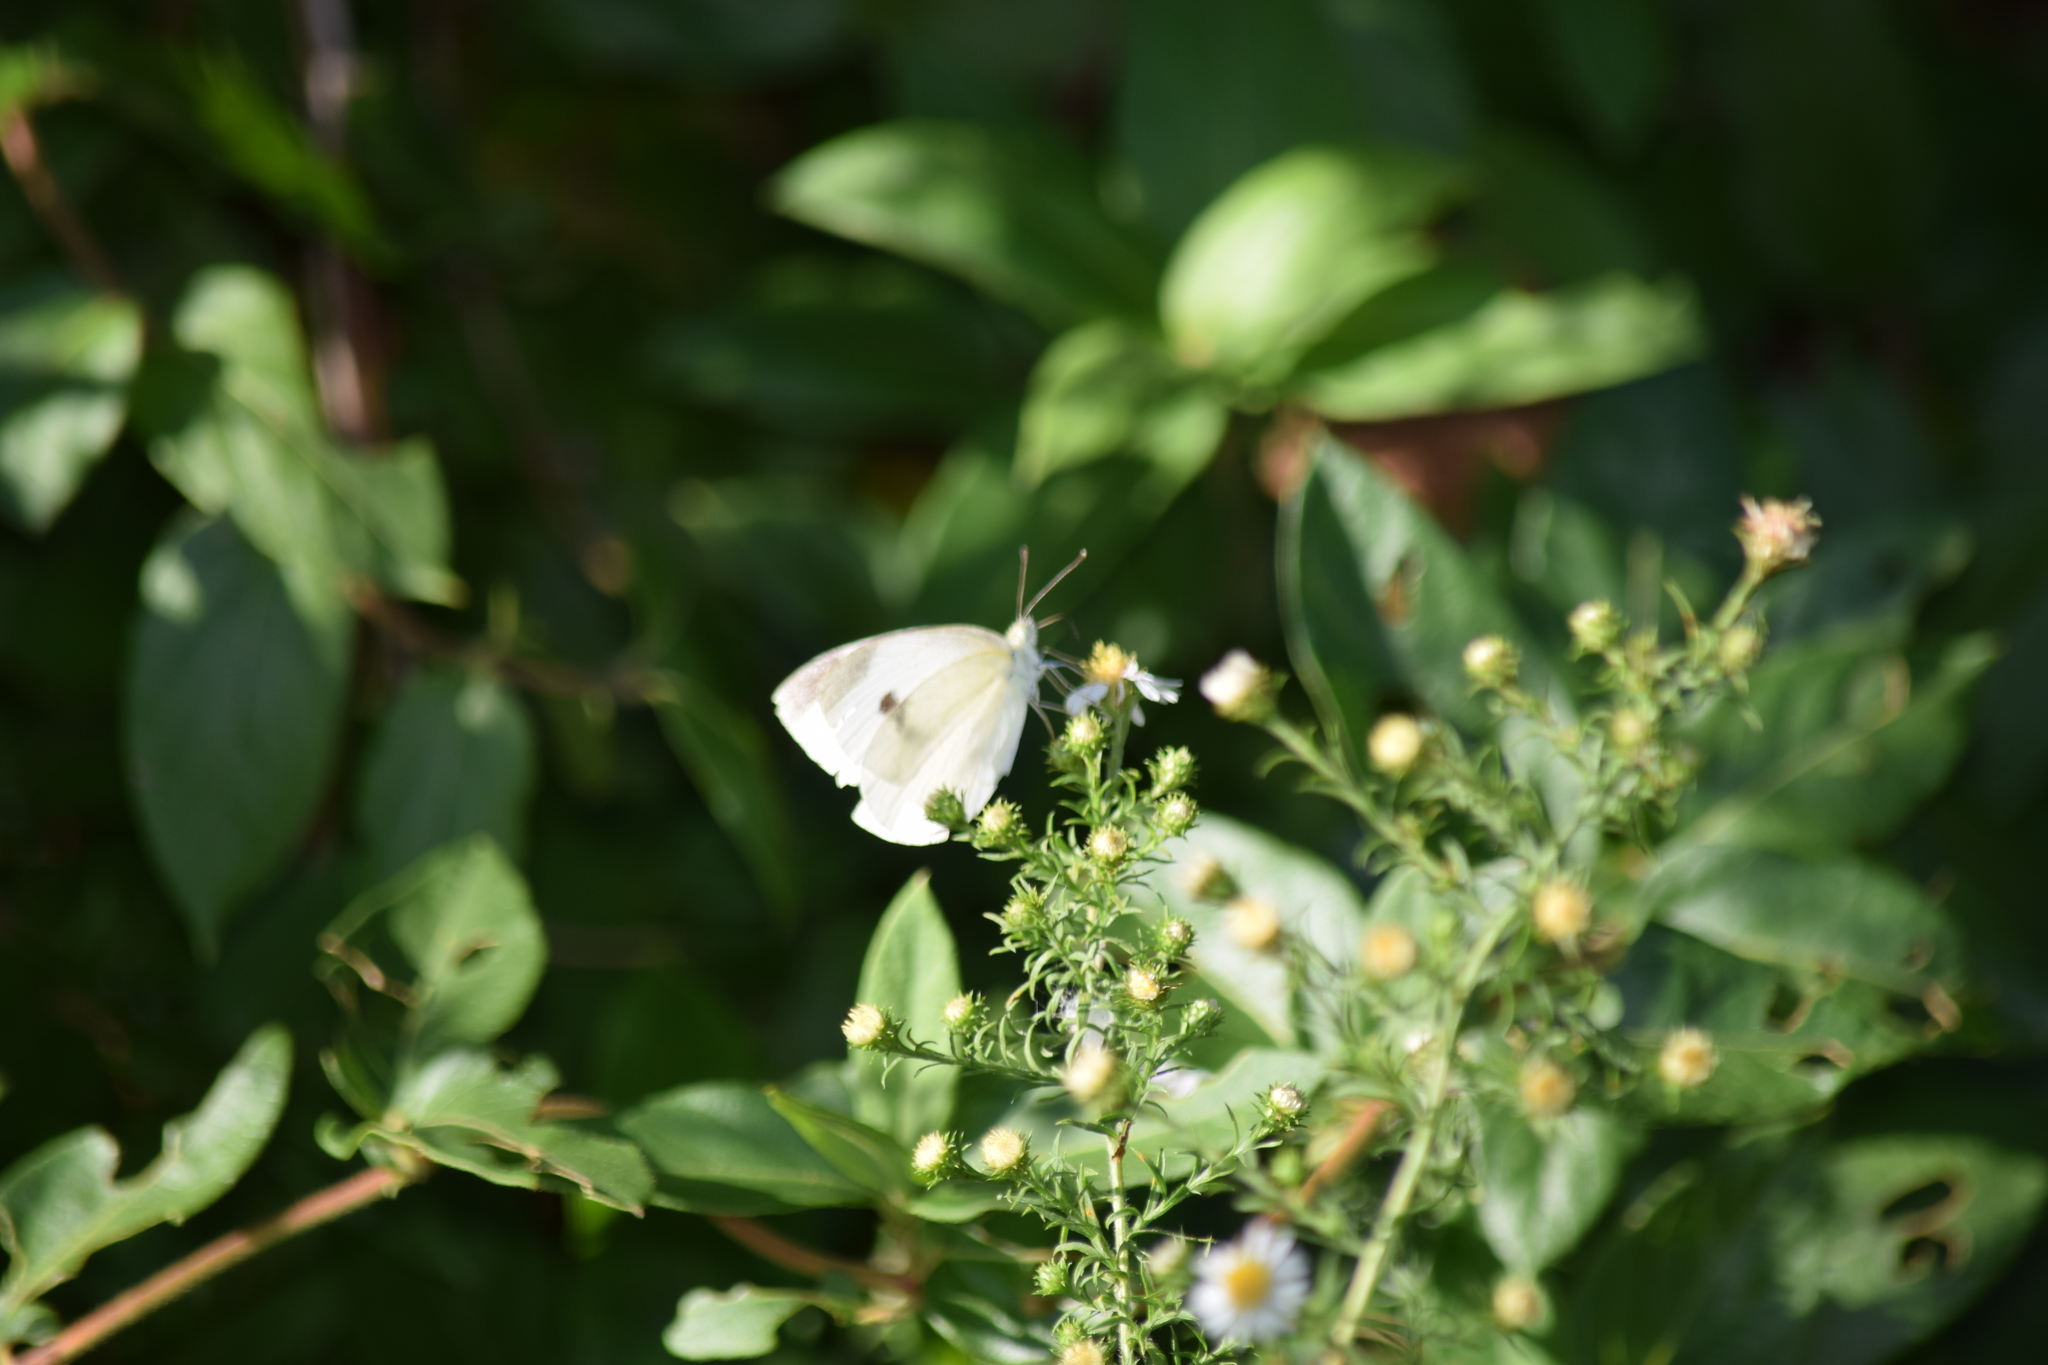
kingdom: Animalia
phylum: Arthropoda
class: Insecta
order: Lepidoptera
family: Pieridae
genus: Pieris
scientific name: Pieris rapae
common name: Small white
